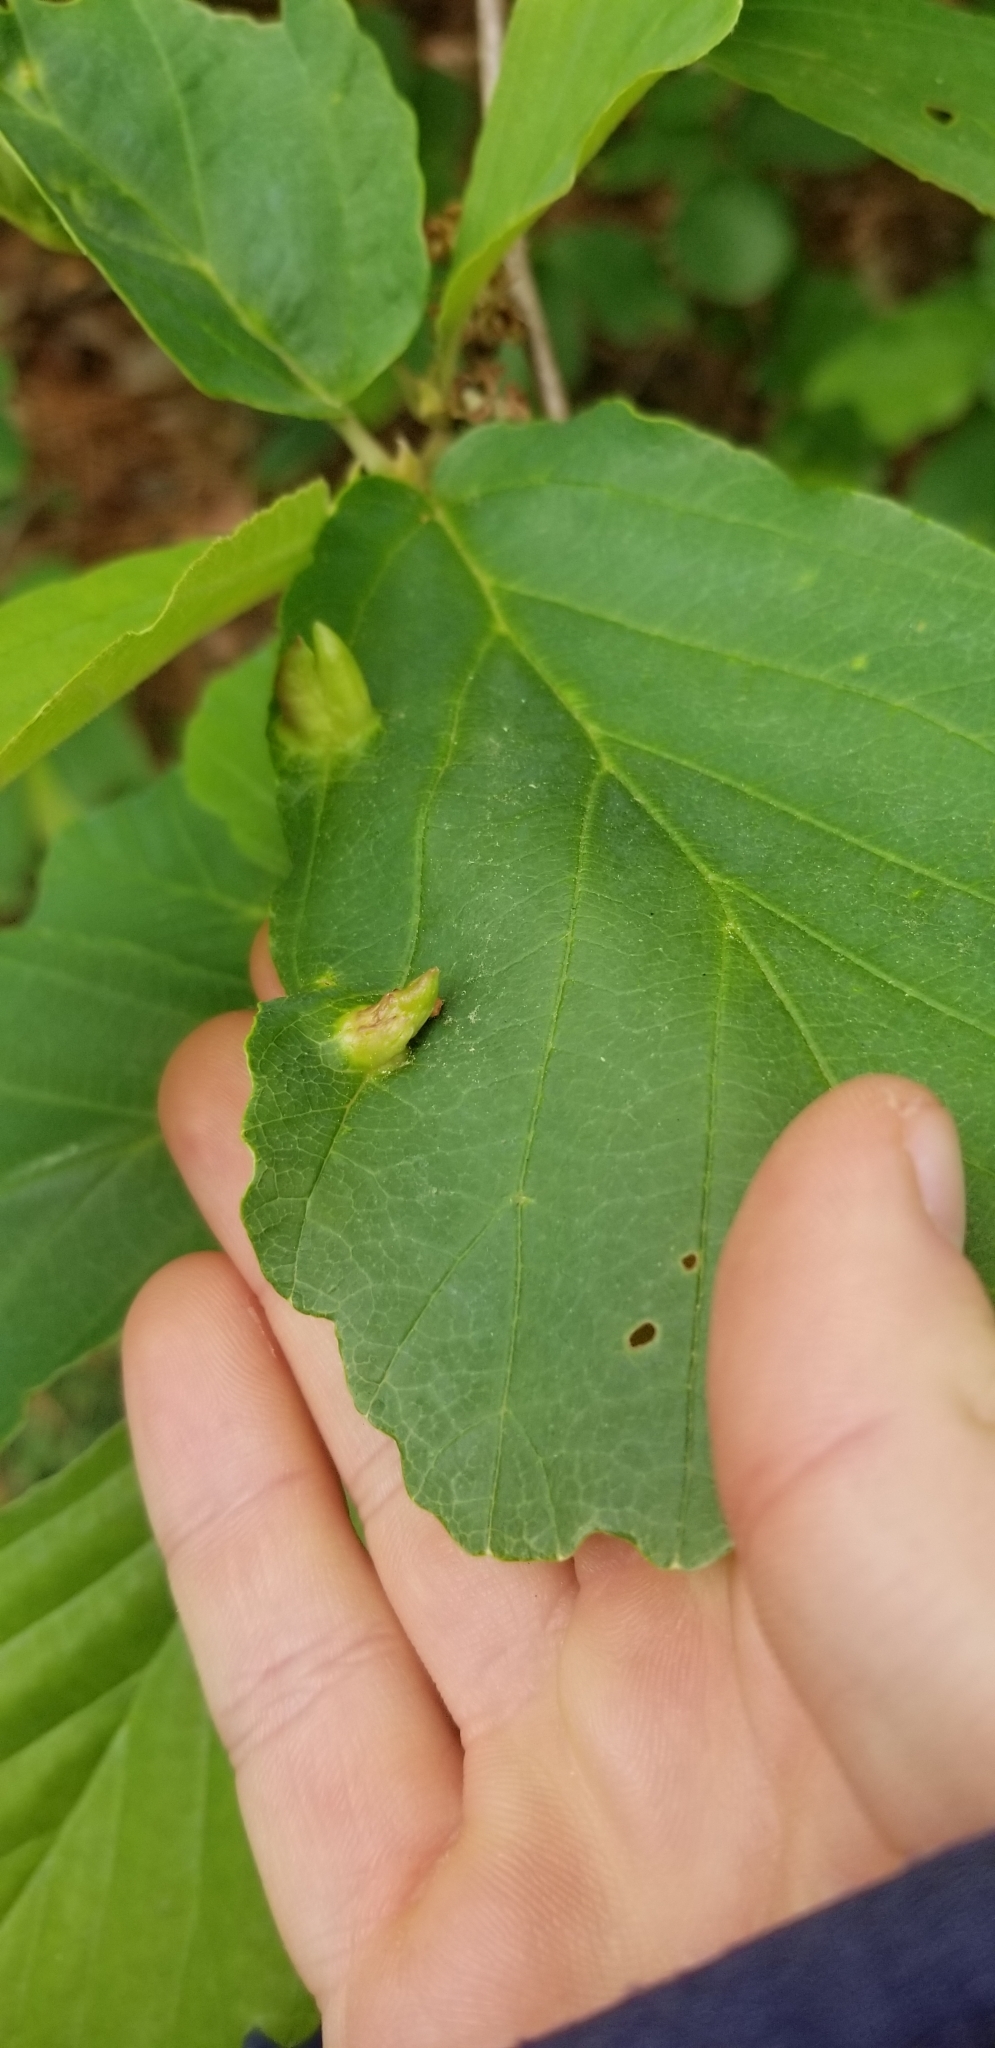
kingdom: Animalia
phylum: Arthropoda
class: Insecta
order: Hemiptera
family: Aphididae
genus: Hormaphis
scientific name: Hormaphis hamamelidis
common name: Witch-hazel cone gall aphid
